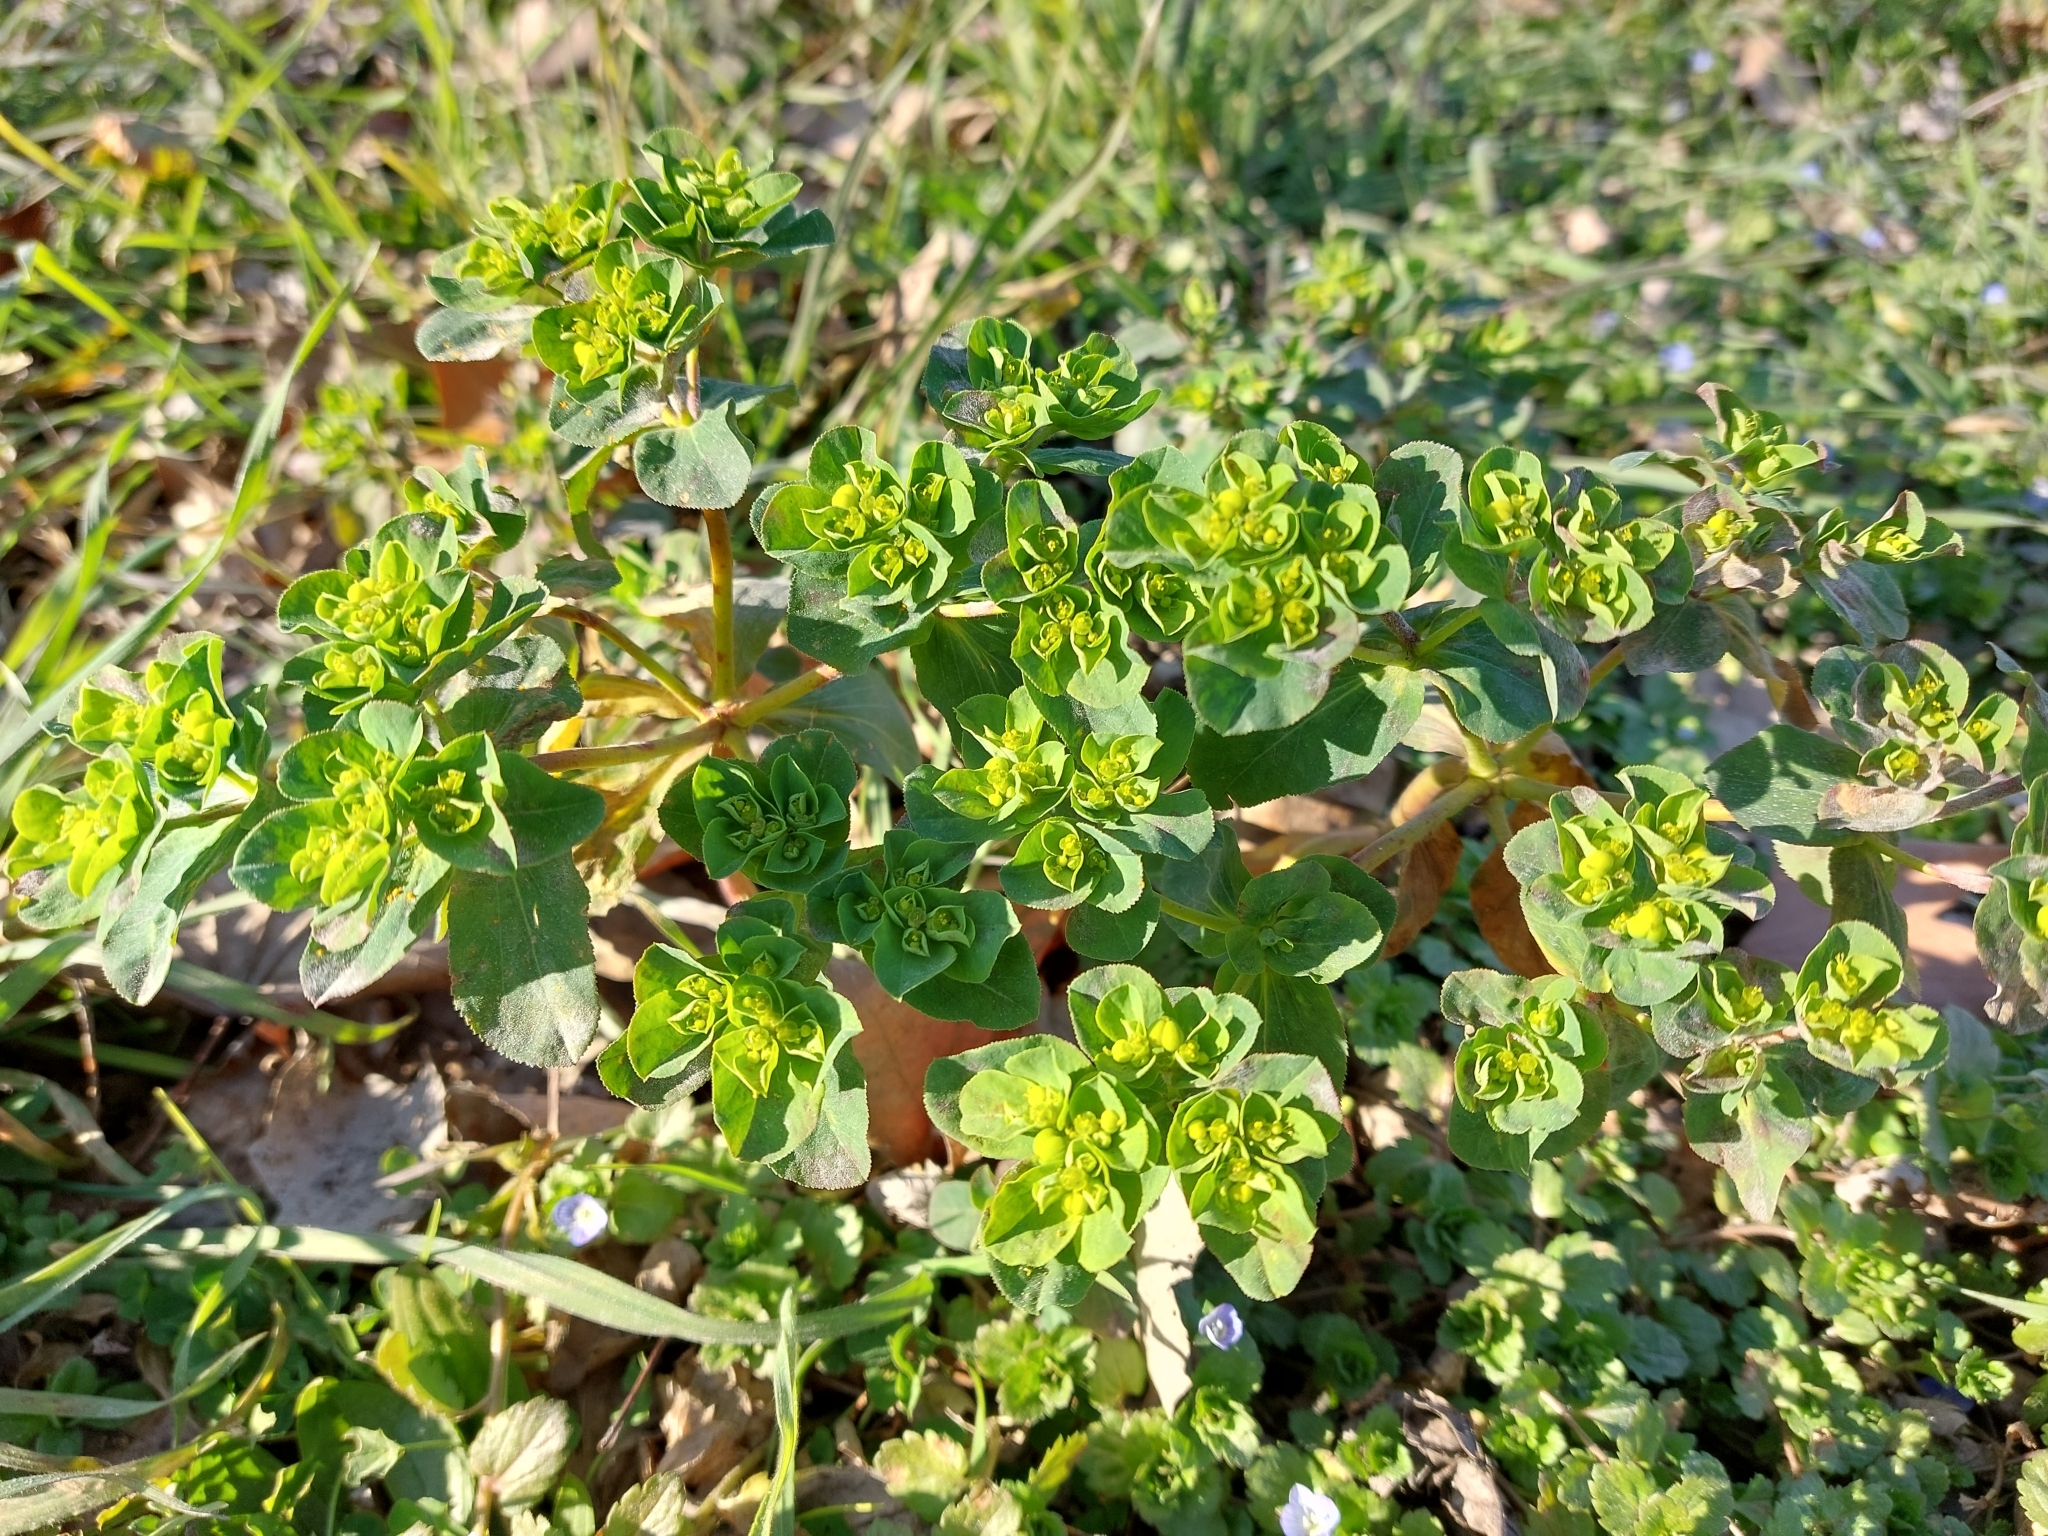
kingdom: Plantae
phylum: Tracheophyta
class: Magnoliopsida
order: Malpighiales
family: Euphorbiaceae
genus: Euphorbia
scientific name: Euphorbia helioscopia
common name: Sun spurge
